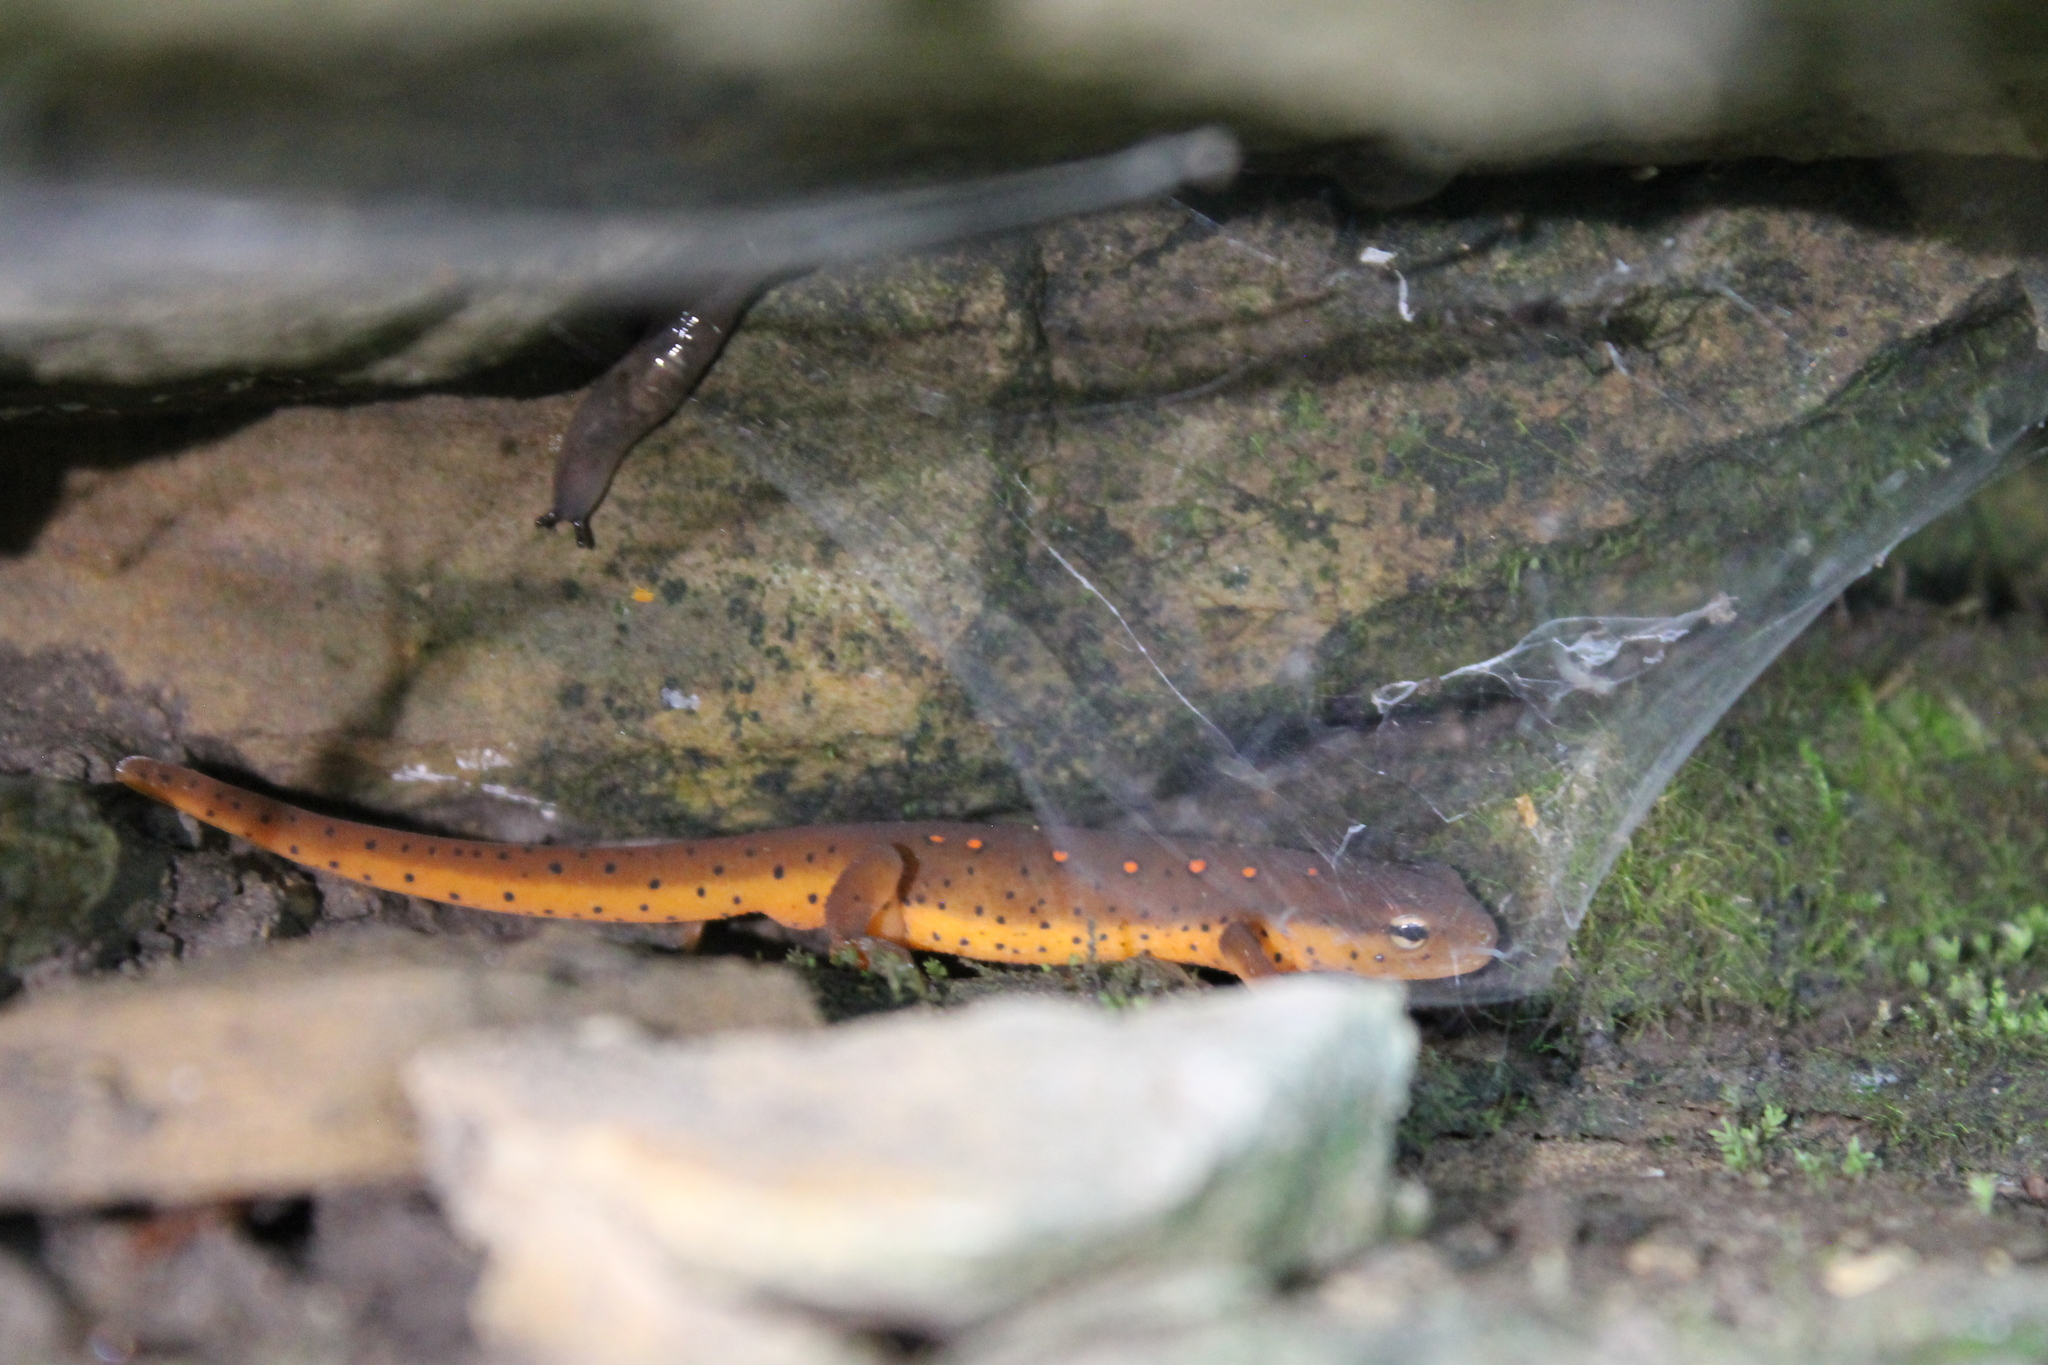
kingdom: Animalia
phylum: Chordata
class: Amphibia
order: Caudata
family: Salamandridae
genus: Notophthalmus
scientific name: Notophthalmus viridescens
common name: Eastern newt
